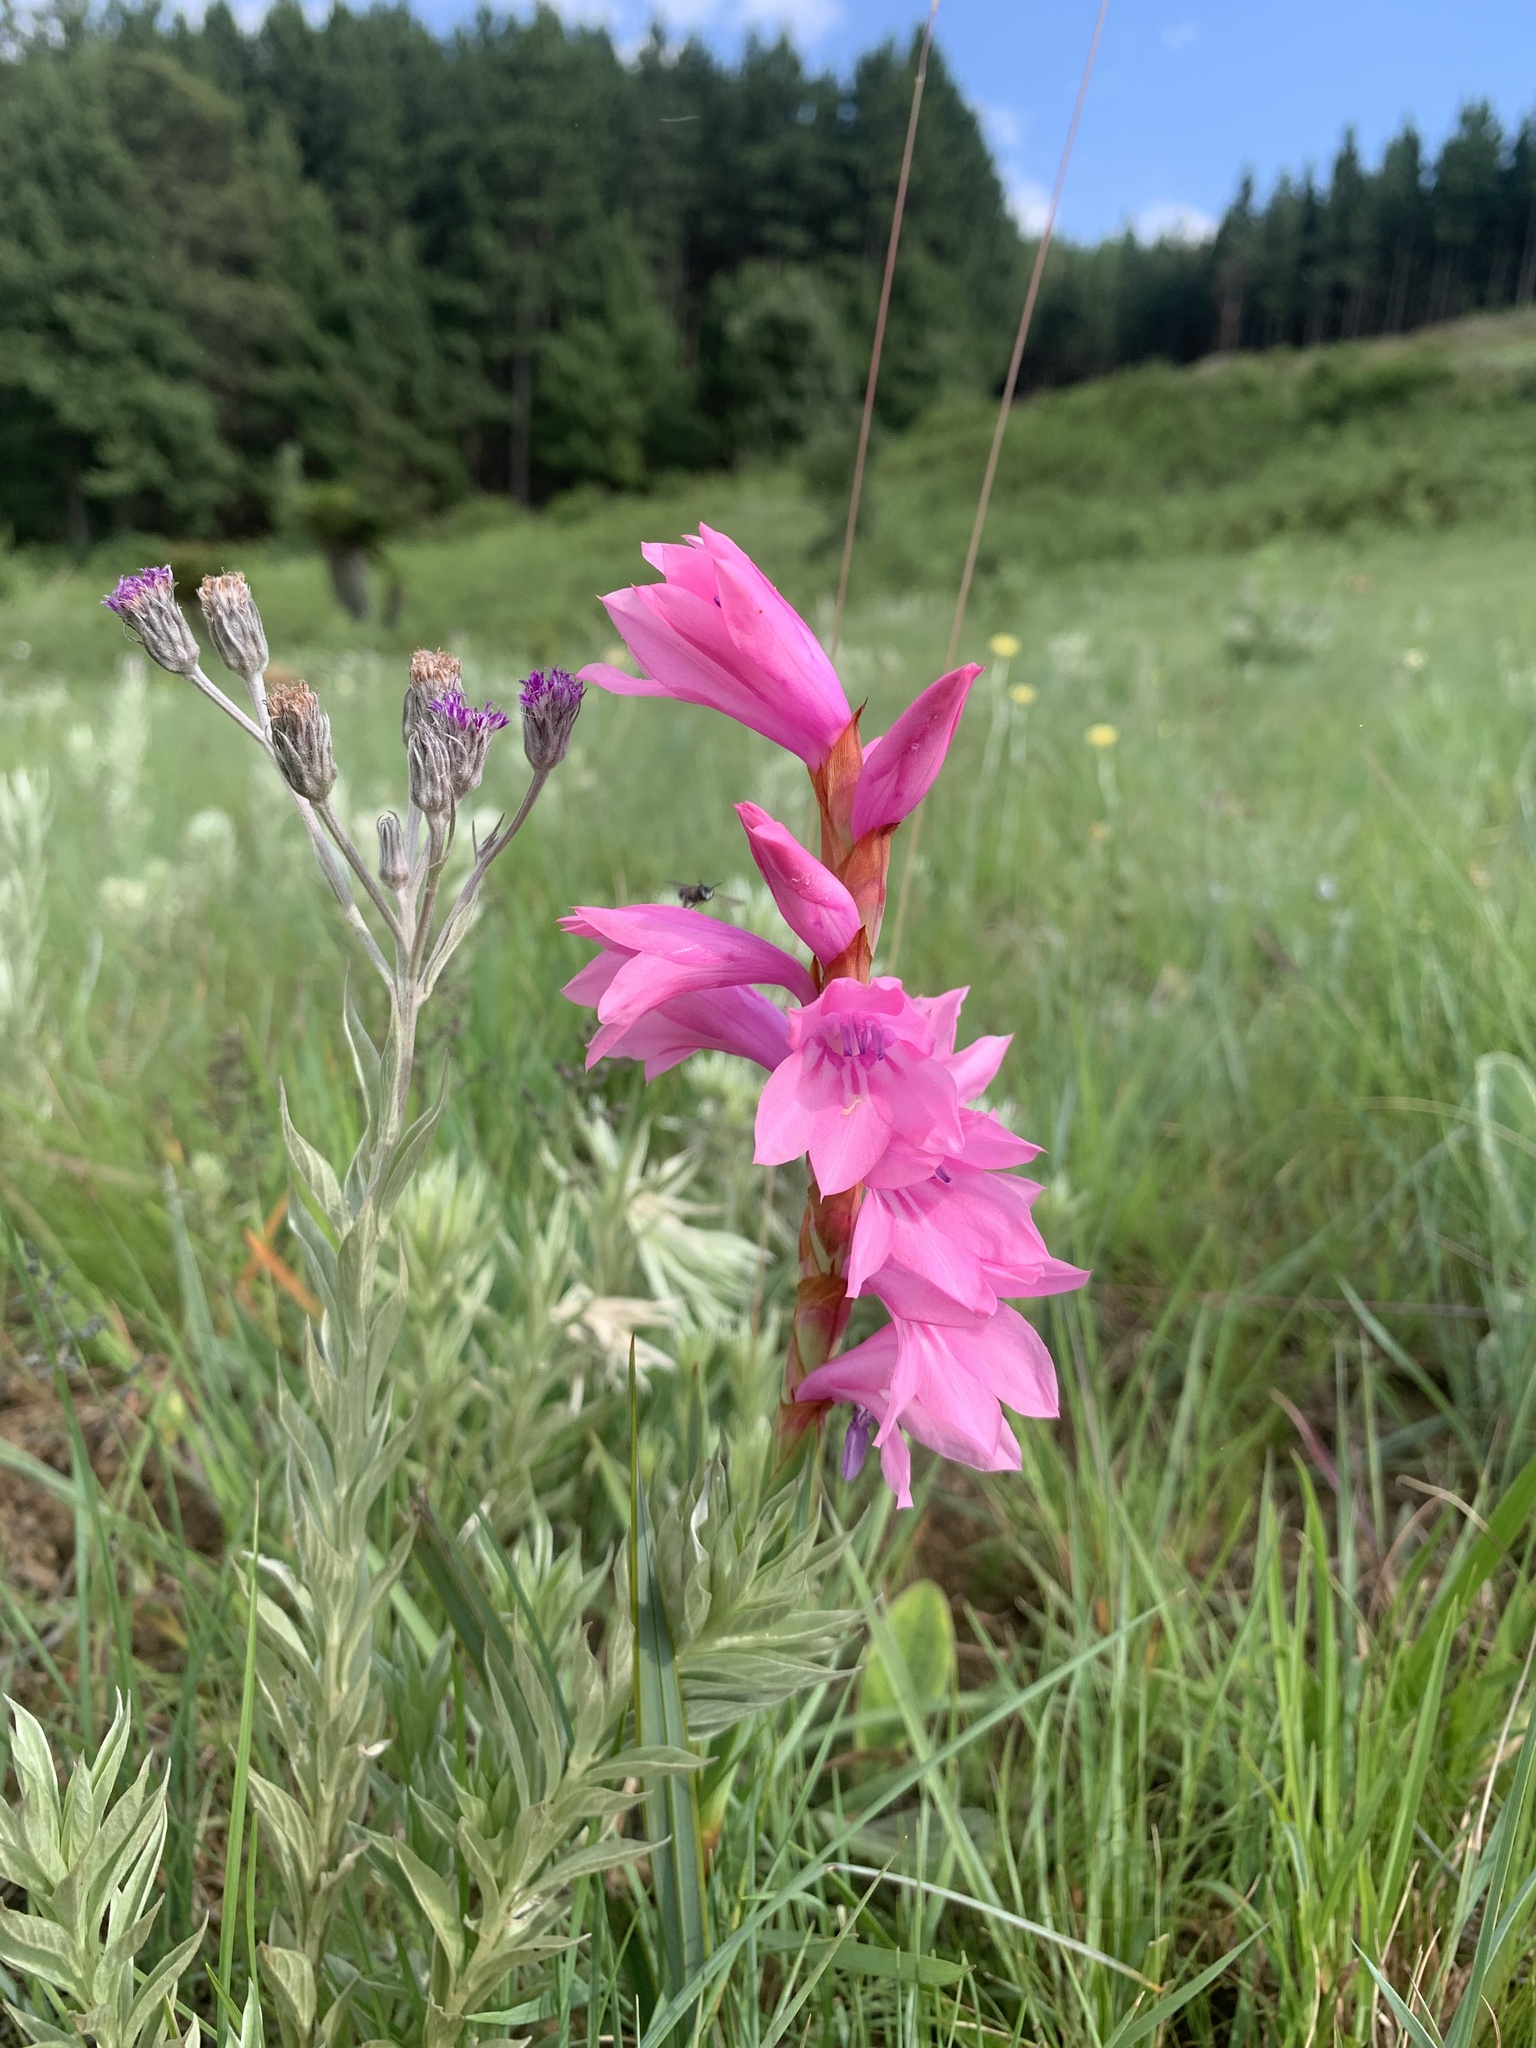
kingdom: Plantae
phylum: Tracheophyta
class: Liliopsida
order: Asparagales
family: Iridaceae
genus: Watsonia
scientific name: Watsonia confusa
